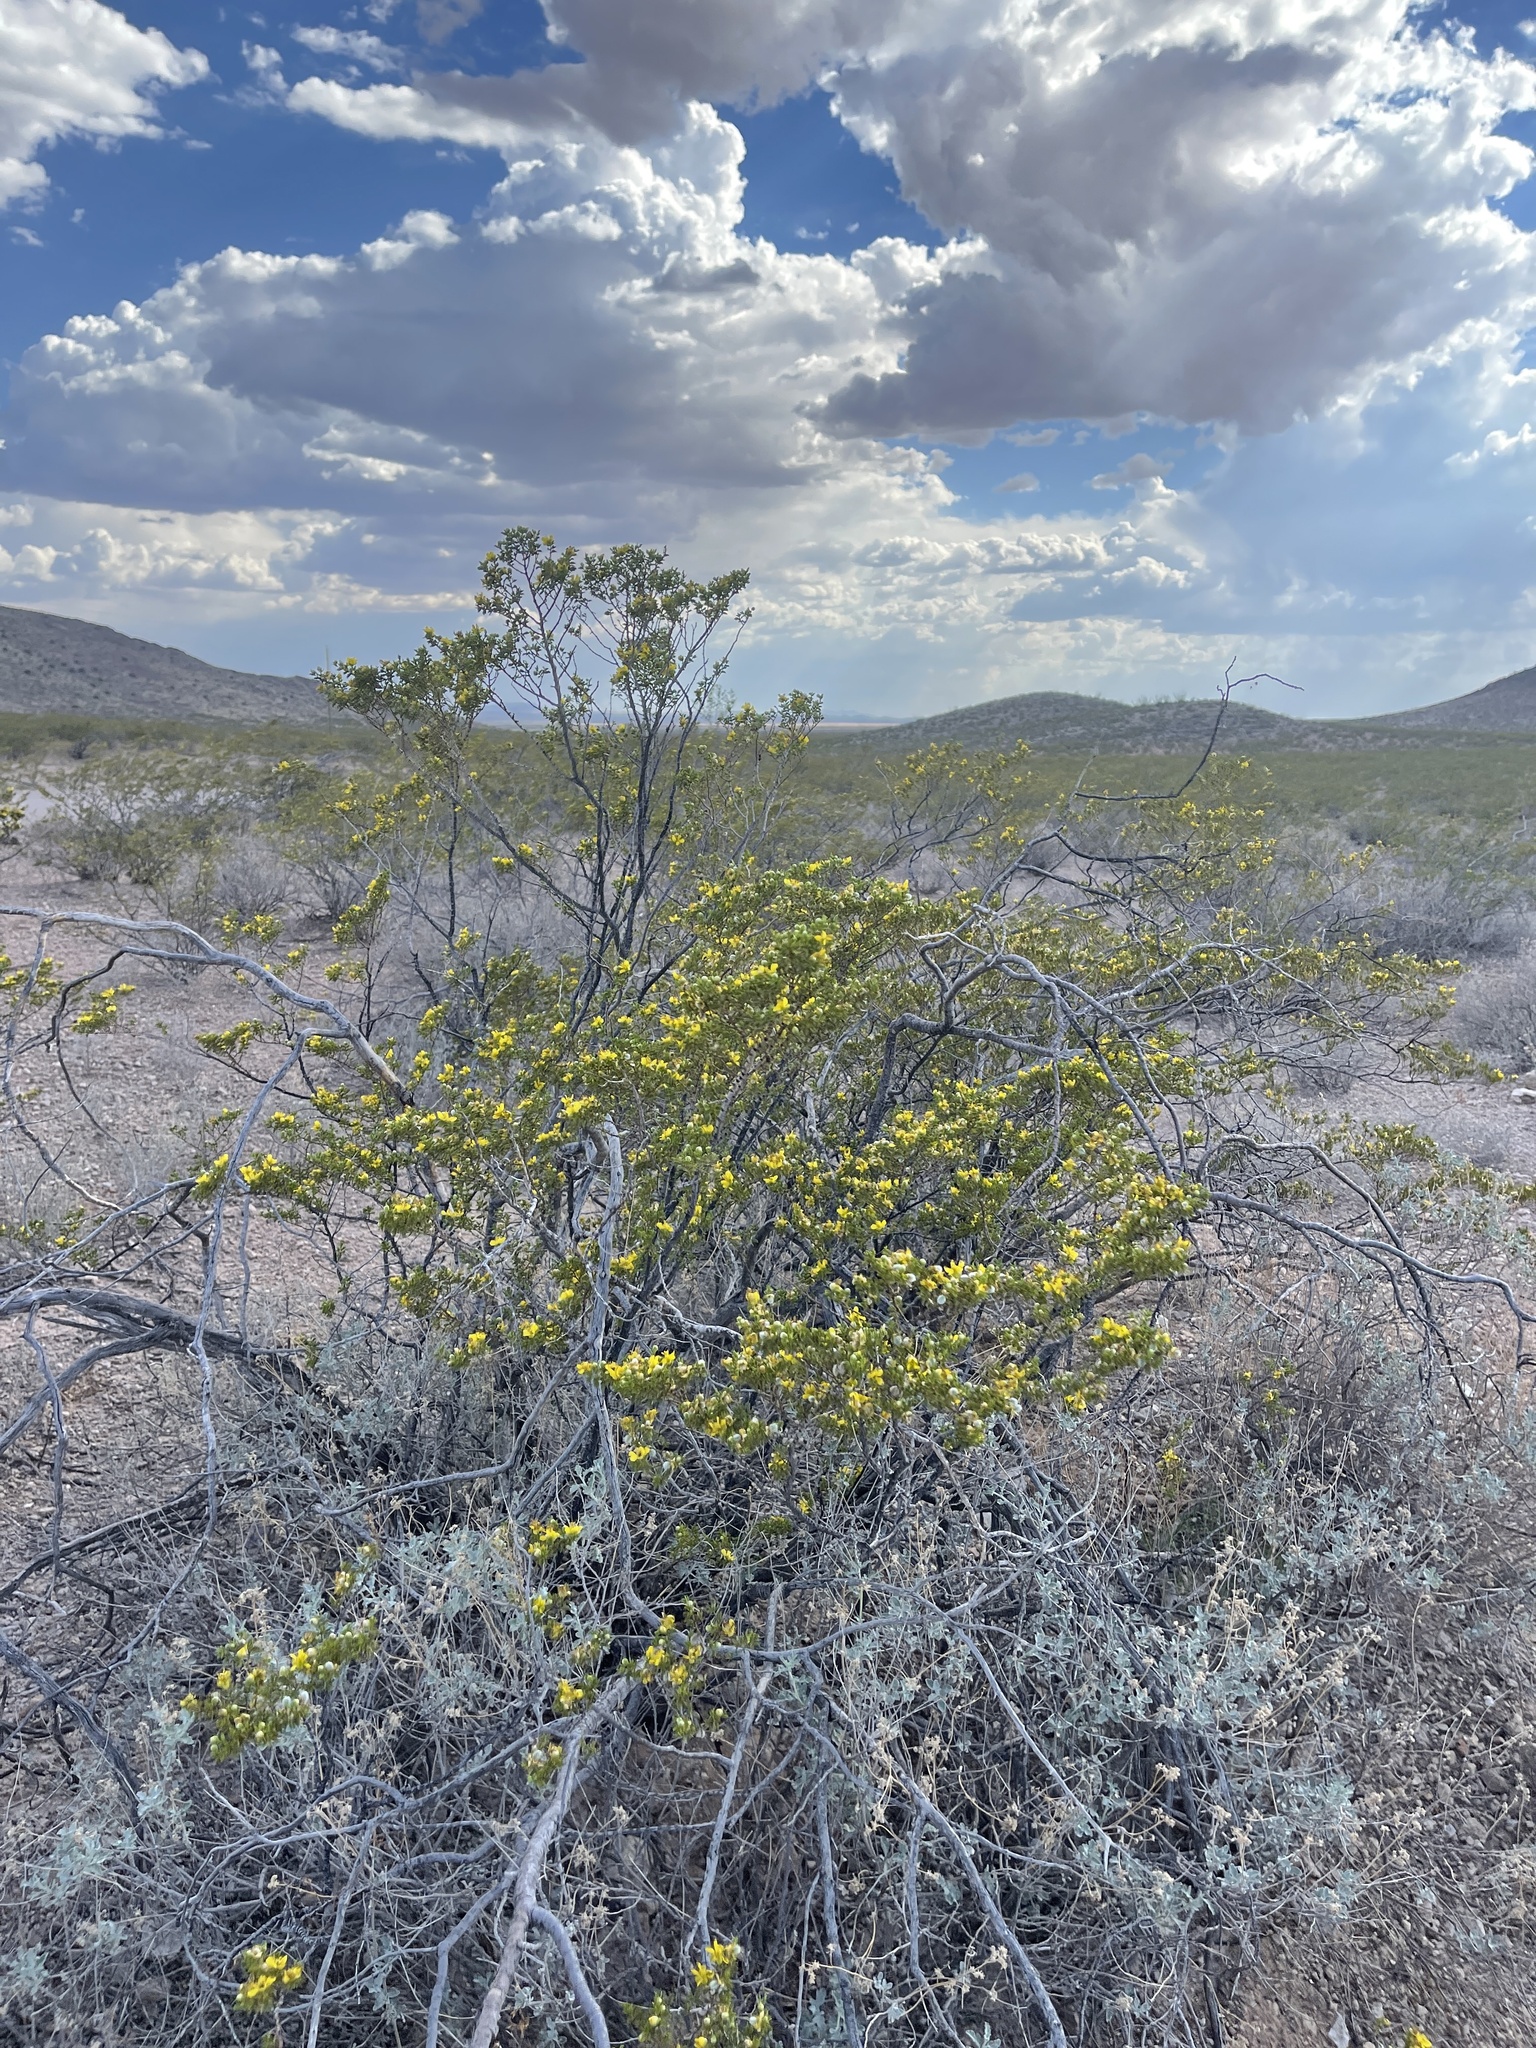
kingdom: Plantae
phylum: Tracheophyta
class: Magnoliopsida
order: Zygophyllales
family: Zygophyllaceae
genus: Larrea
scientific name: Larrea tridentata
